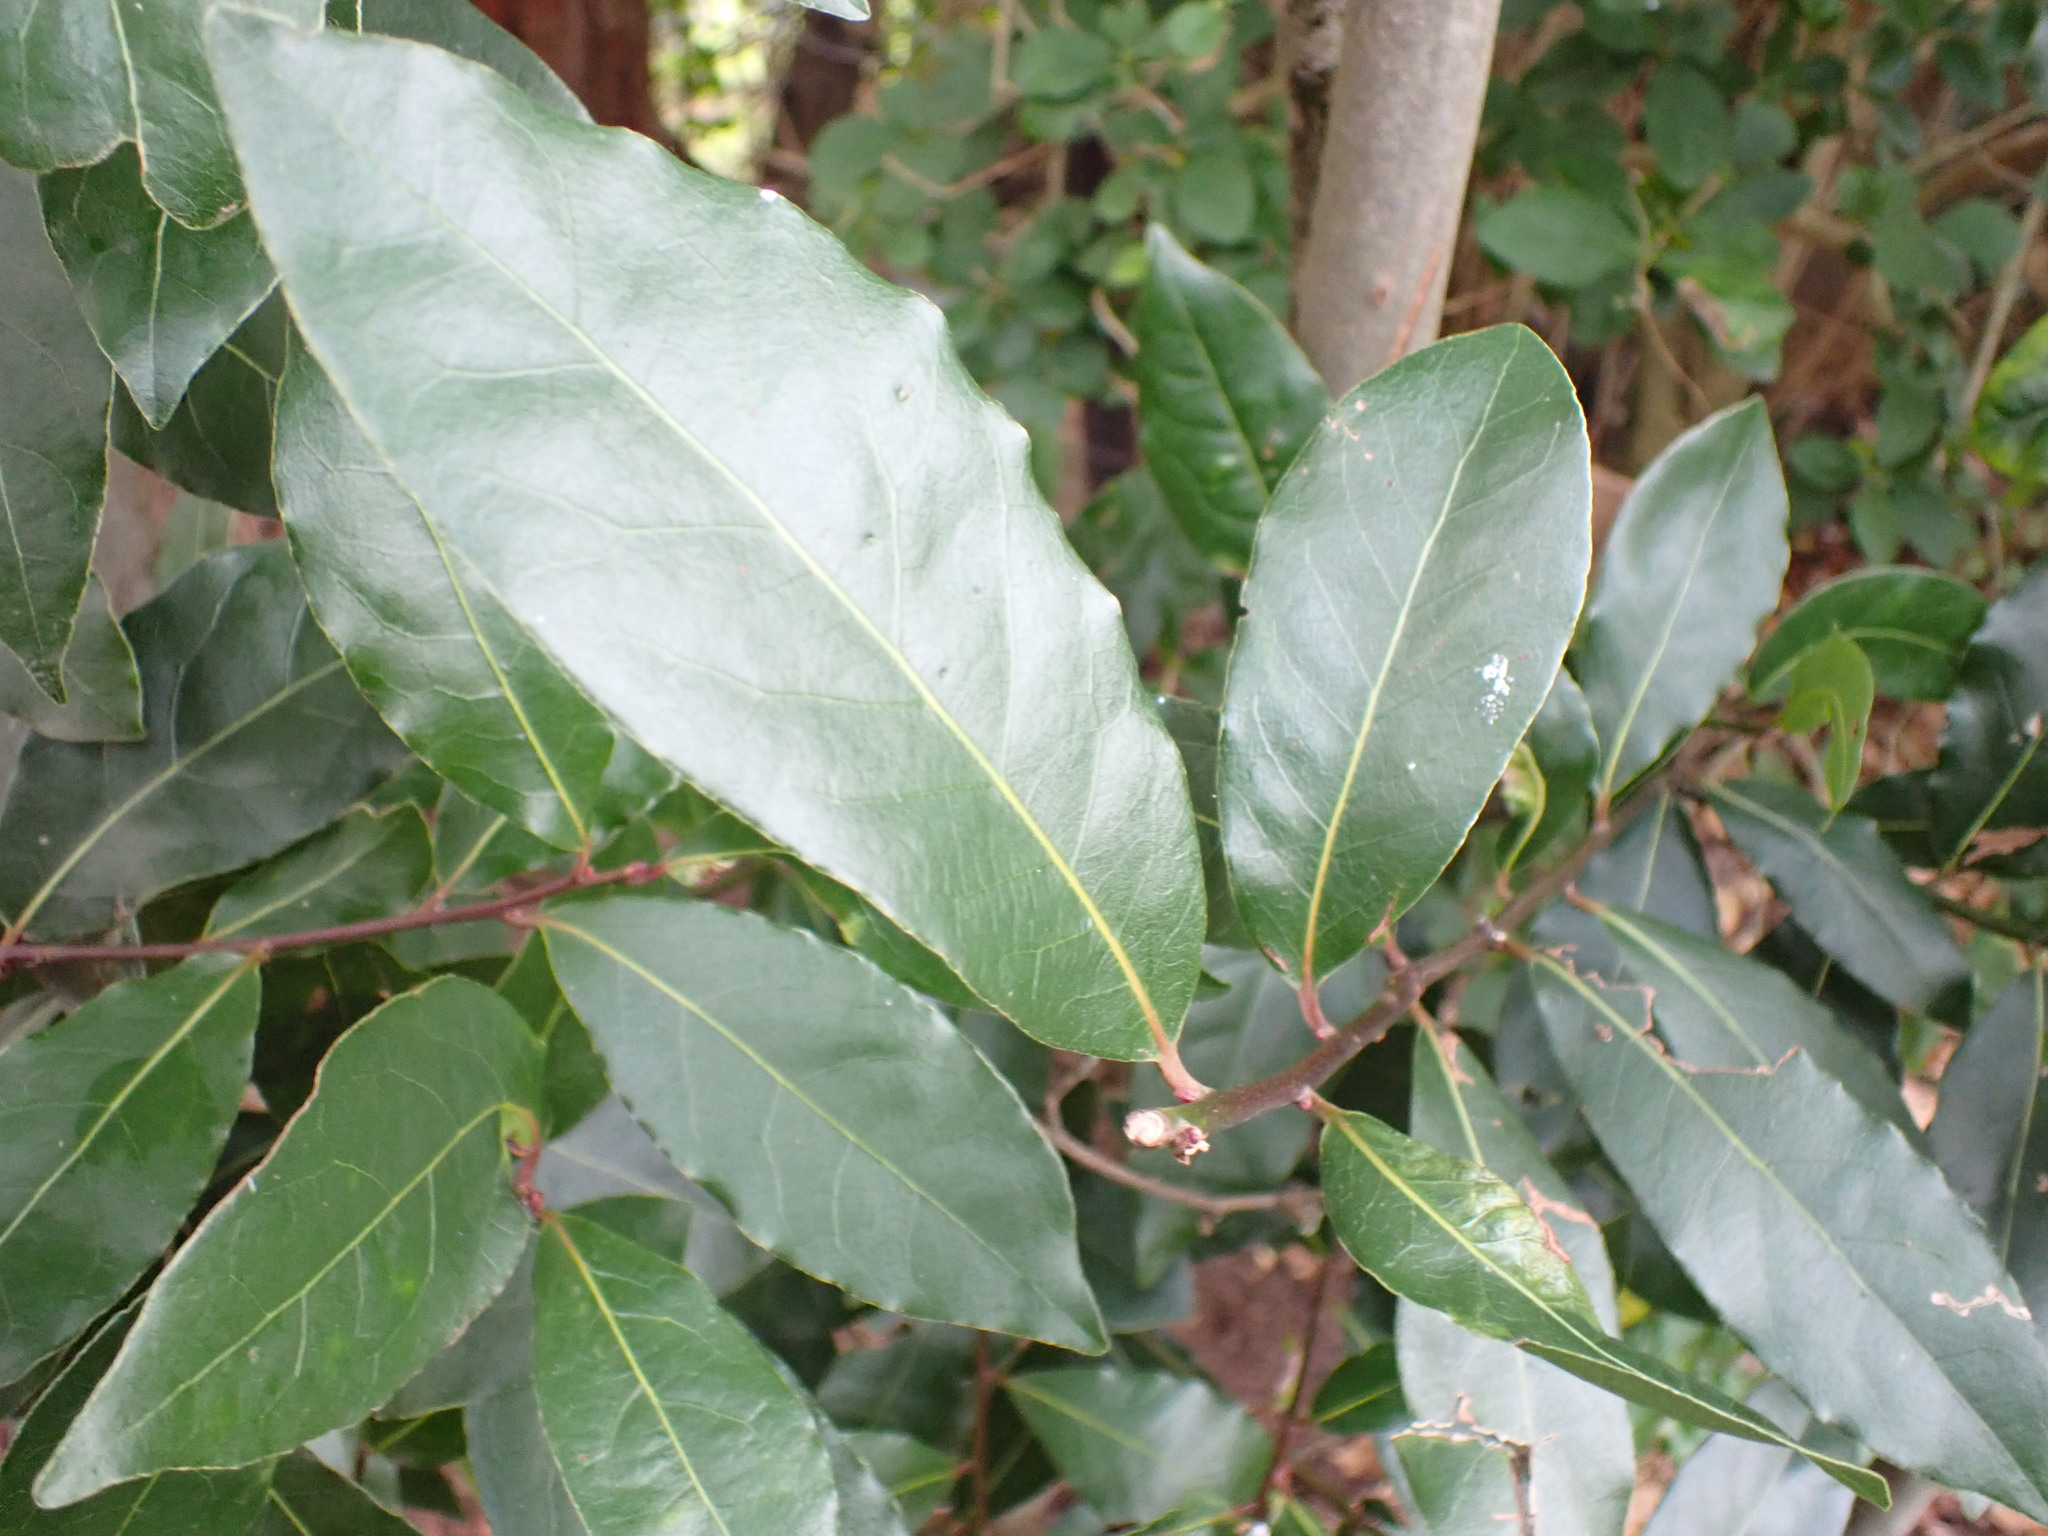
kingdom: Plantae
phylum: Tracheophyta
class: Magnoliopsida
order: Laurales
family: Lauraceae
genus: Laurus
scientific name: Laurus nobilis
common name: Bay
